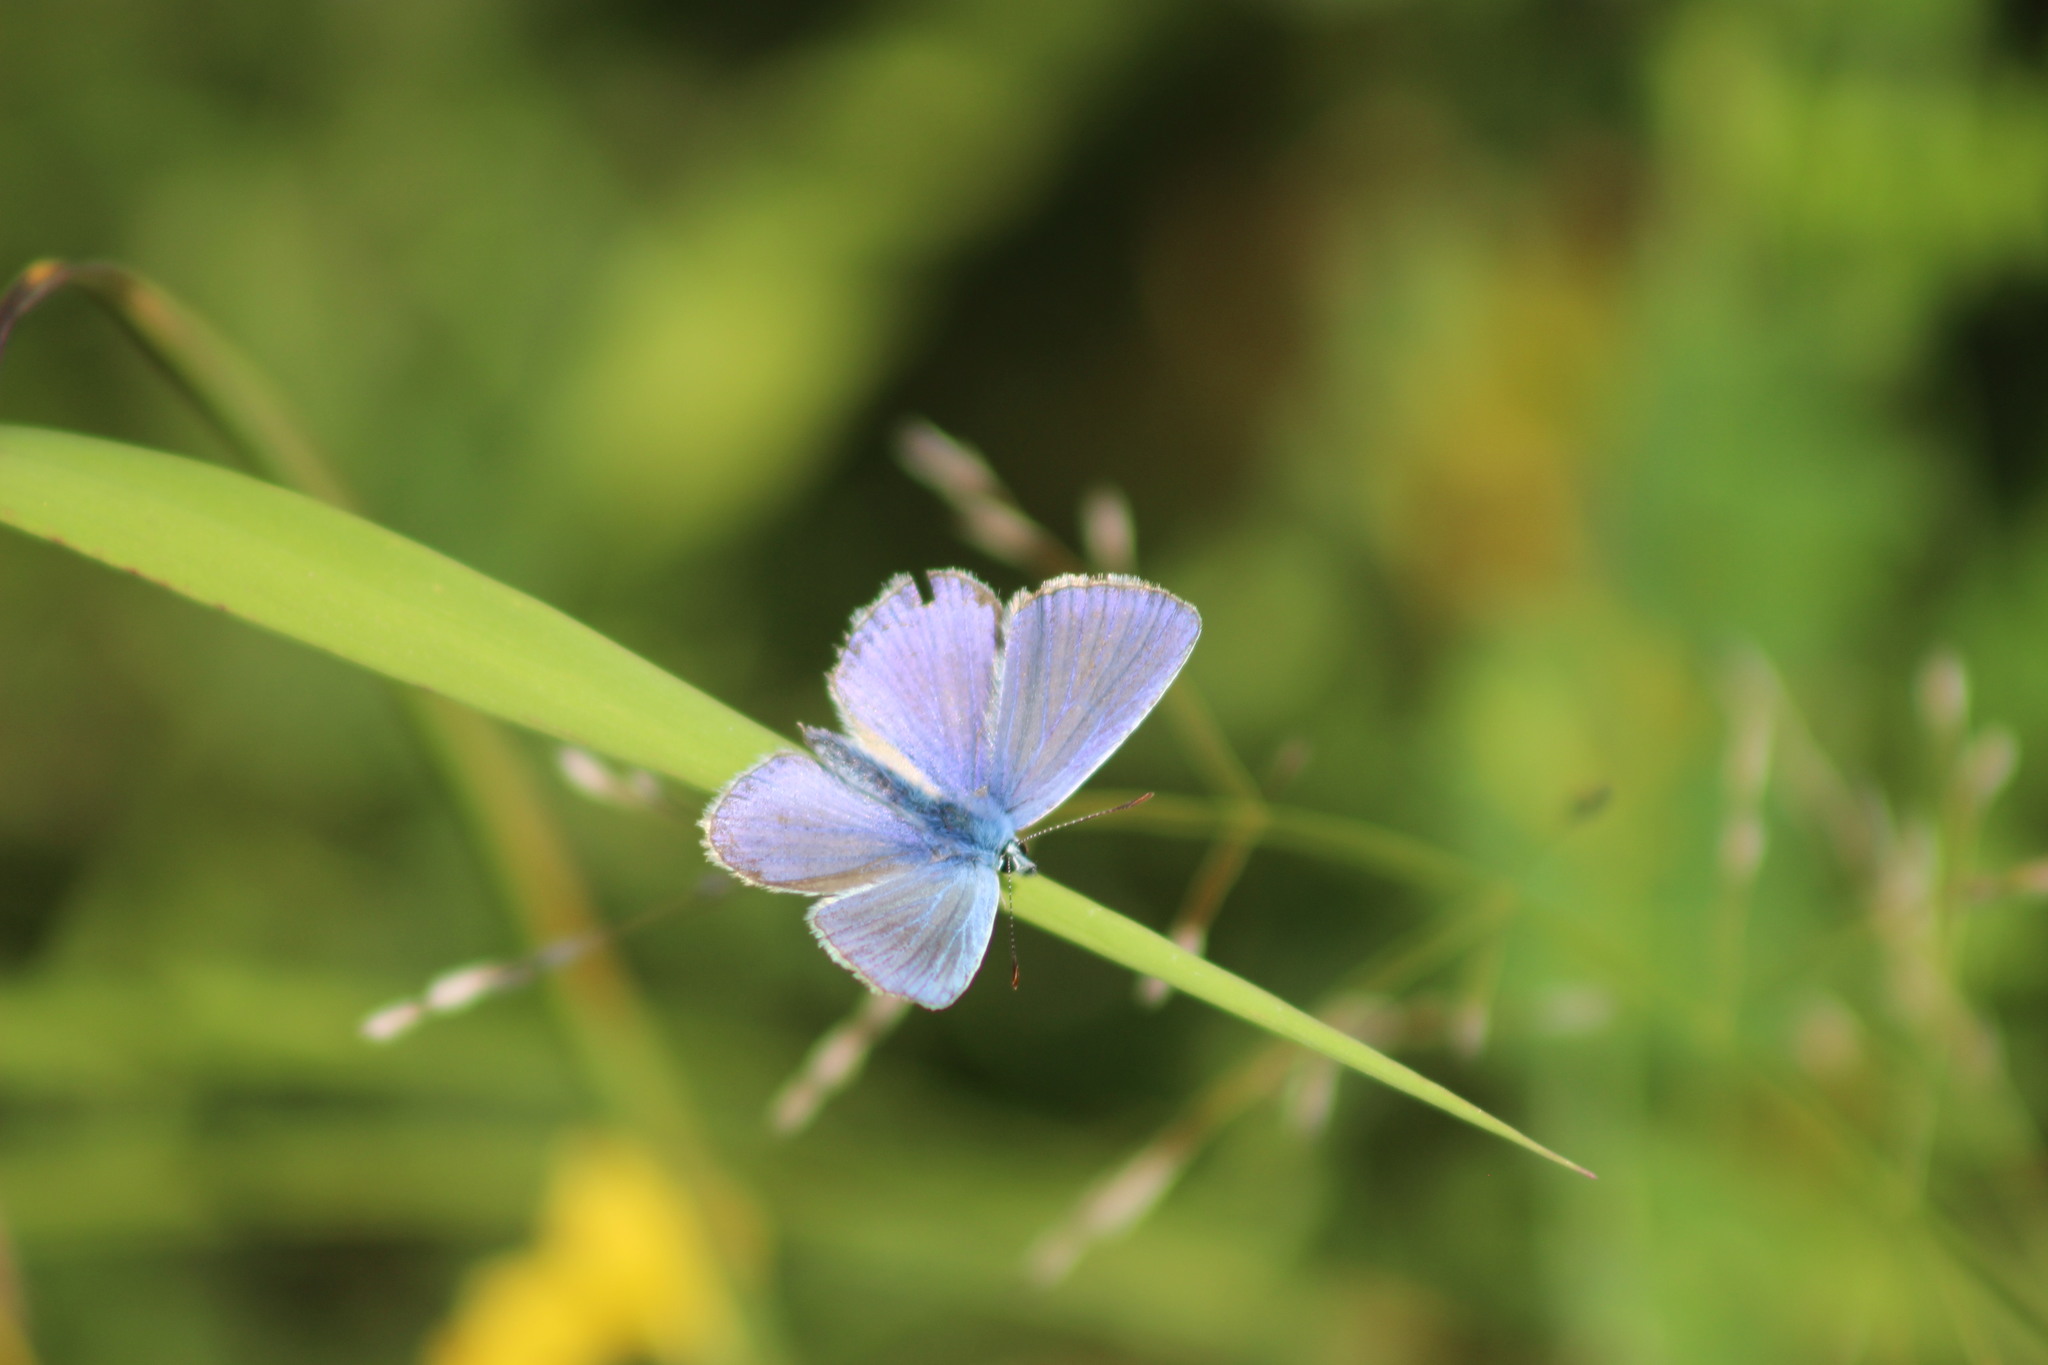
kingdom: Animalia
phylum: Arthropoda
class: Insecta
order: Lepidoptera
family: Lycaenidae
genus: Polyommatus
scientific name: Polyommatus icarus
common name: Common blue
